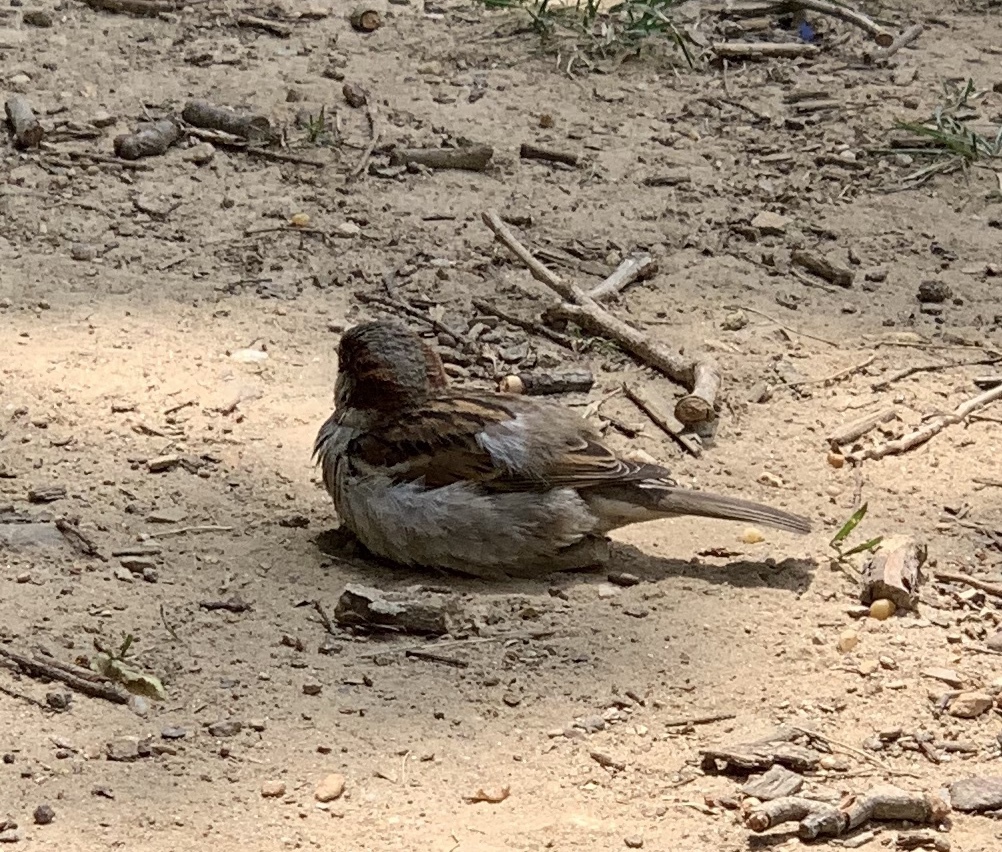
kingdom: Animalia
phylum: Chordata
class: Aves
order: Passeriformes
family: Passeridae
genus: Passer
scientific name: Passer domesticus
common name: House sparrow
